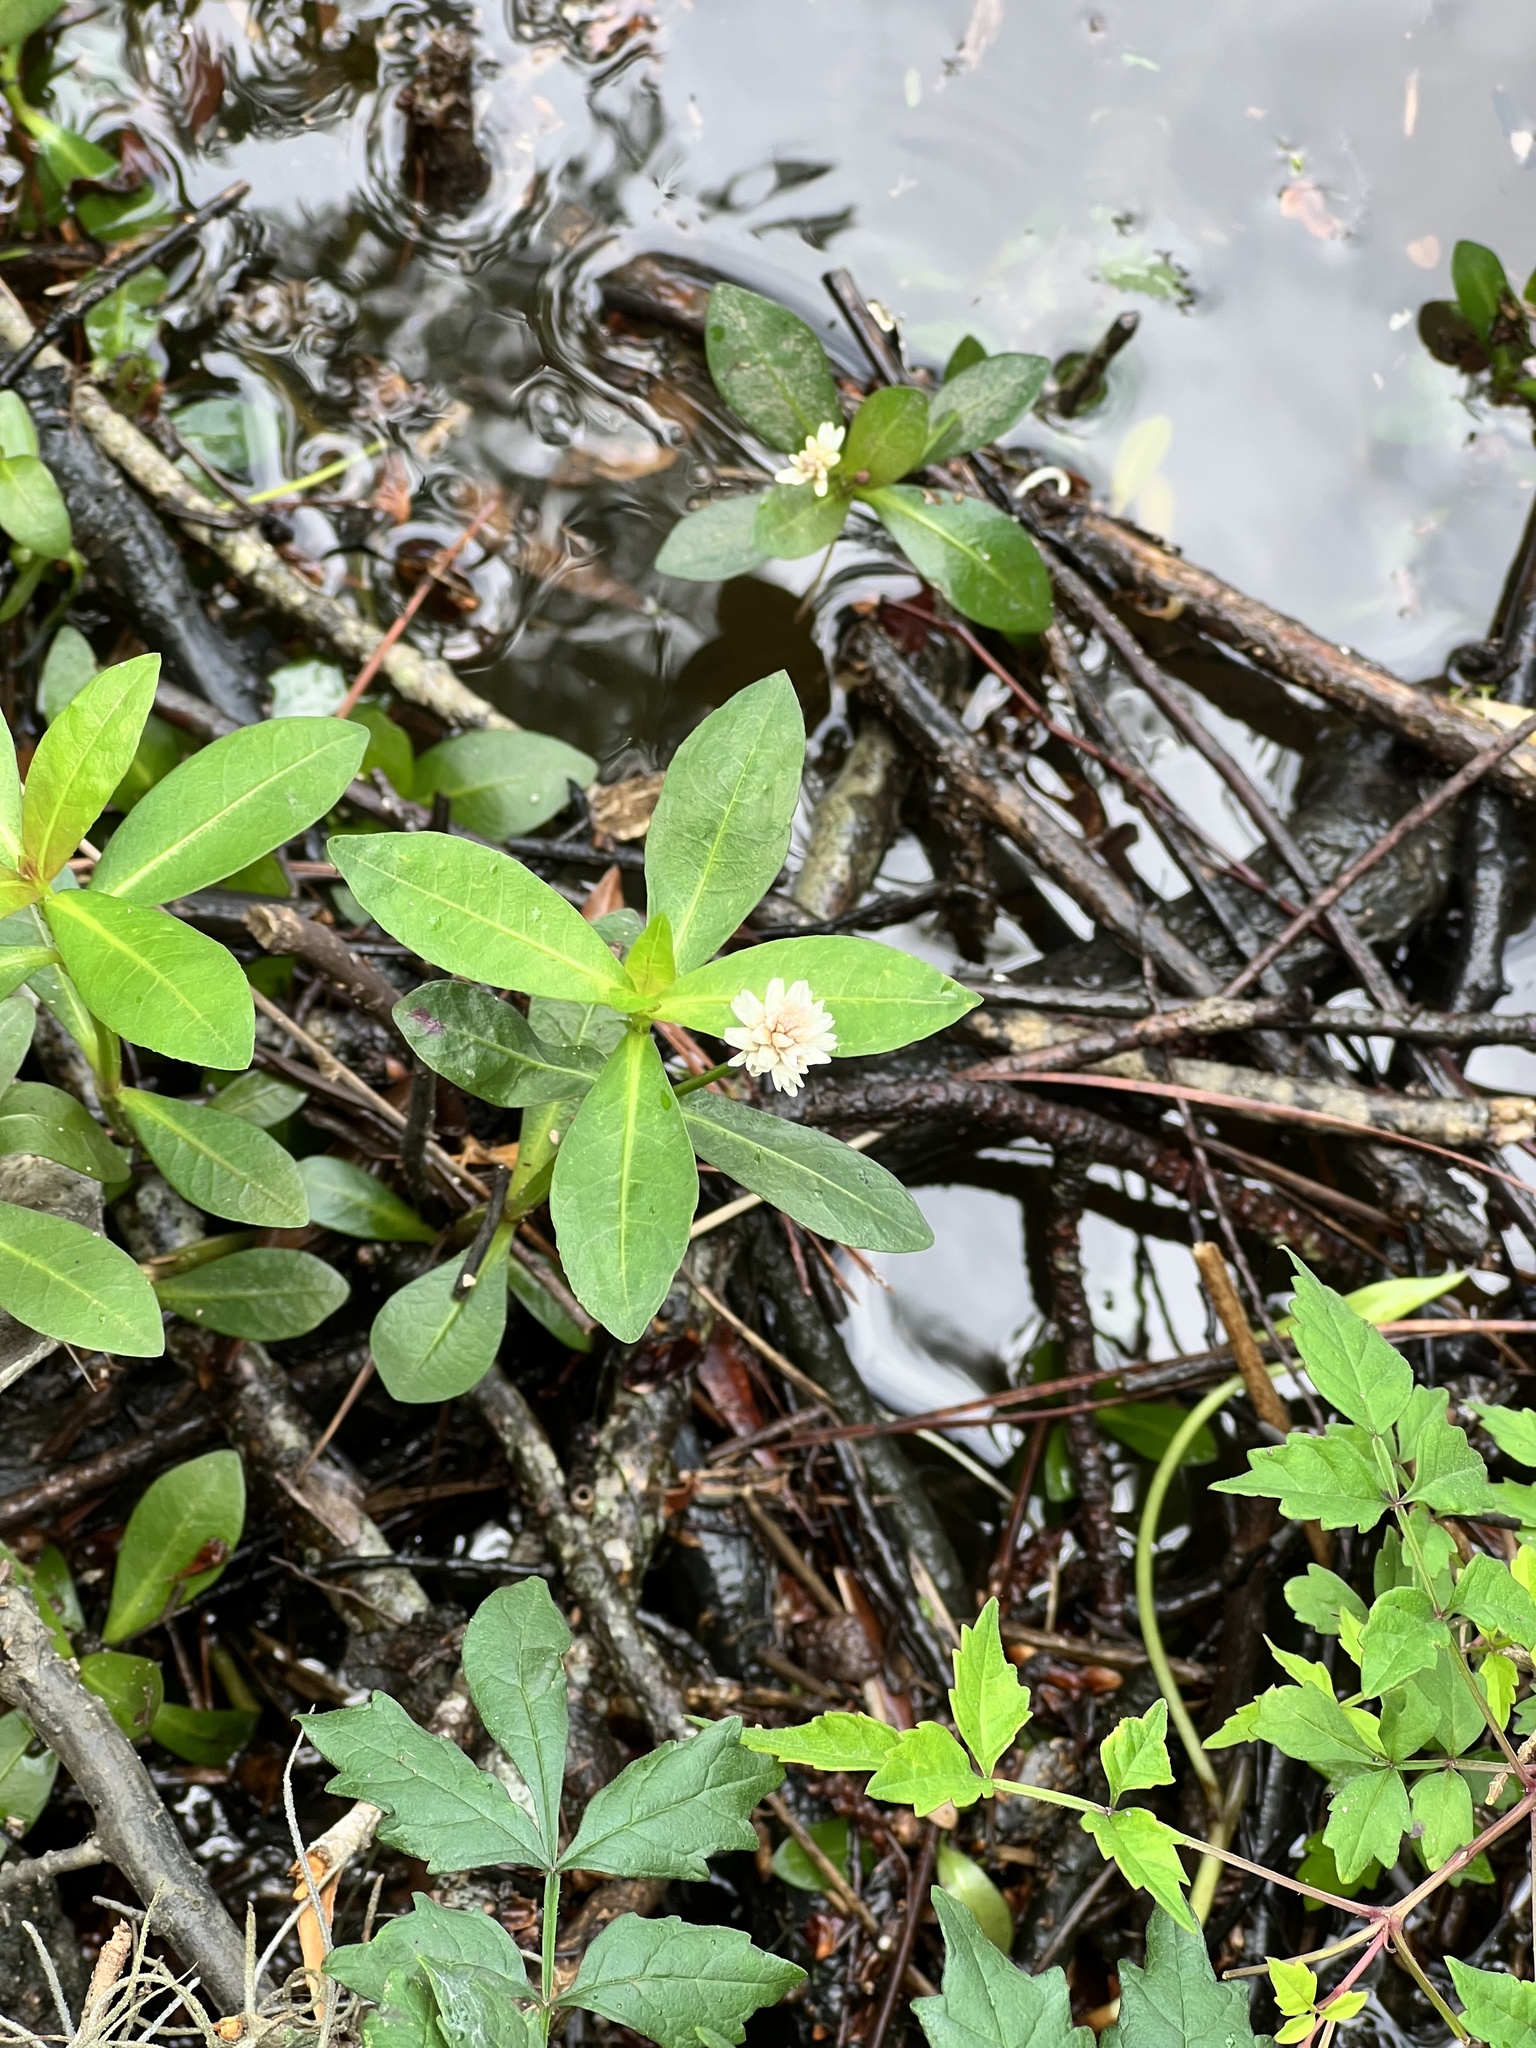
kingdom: Plantae
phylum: Tracheophyta
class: Magnoliopsida
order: Caryophyllales
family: Amaranthaceae
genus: Alternanthera
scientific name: Alternanthera philoxeroides
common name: Alligatorweed
